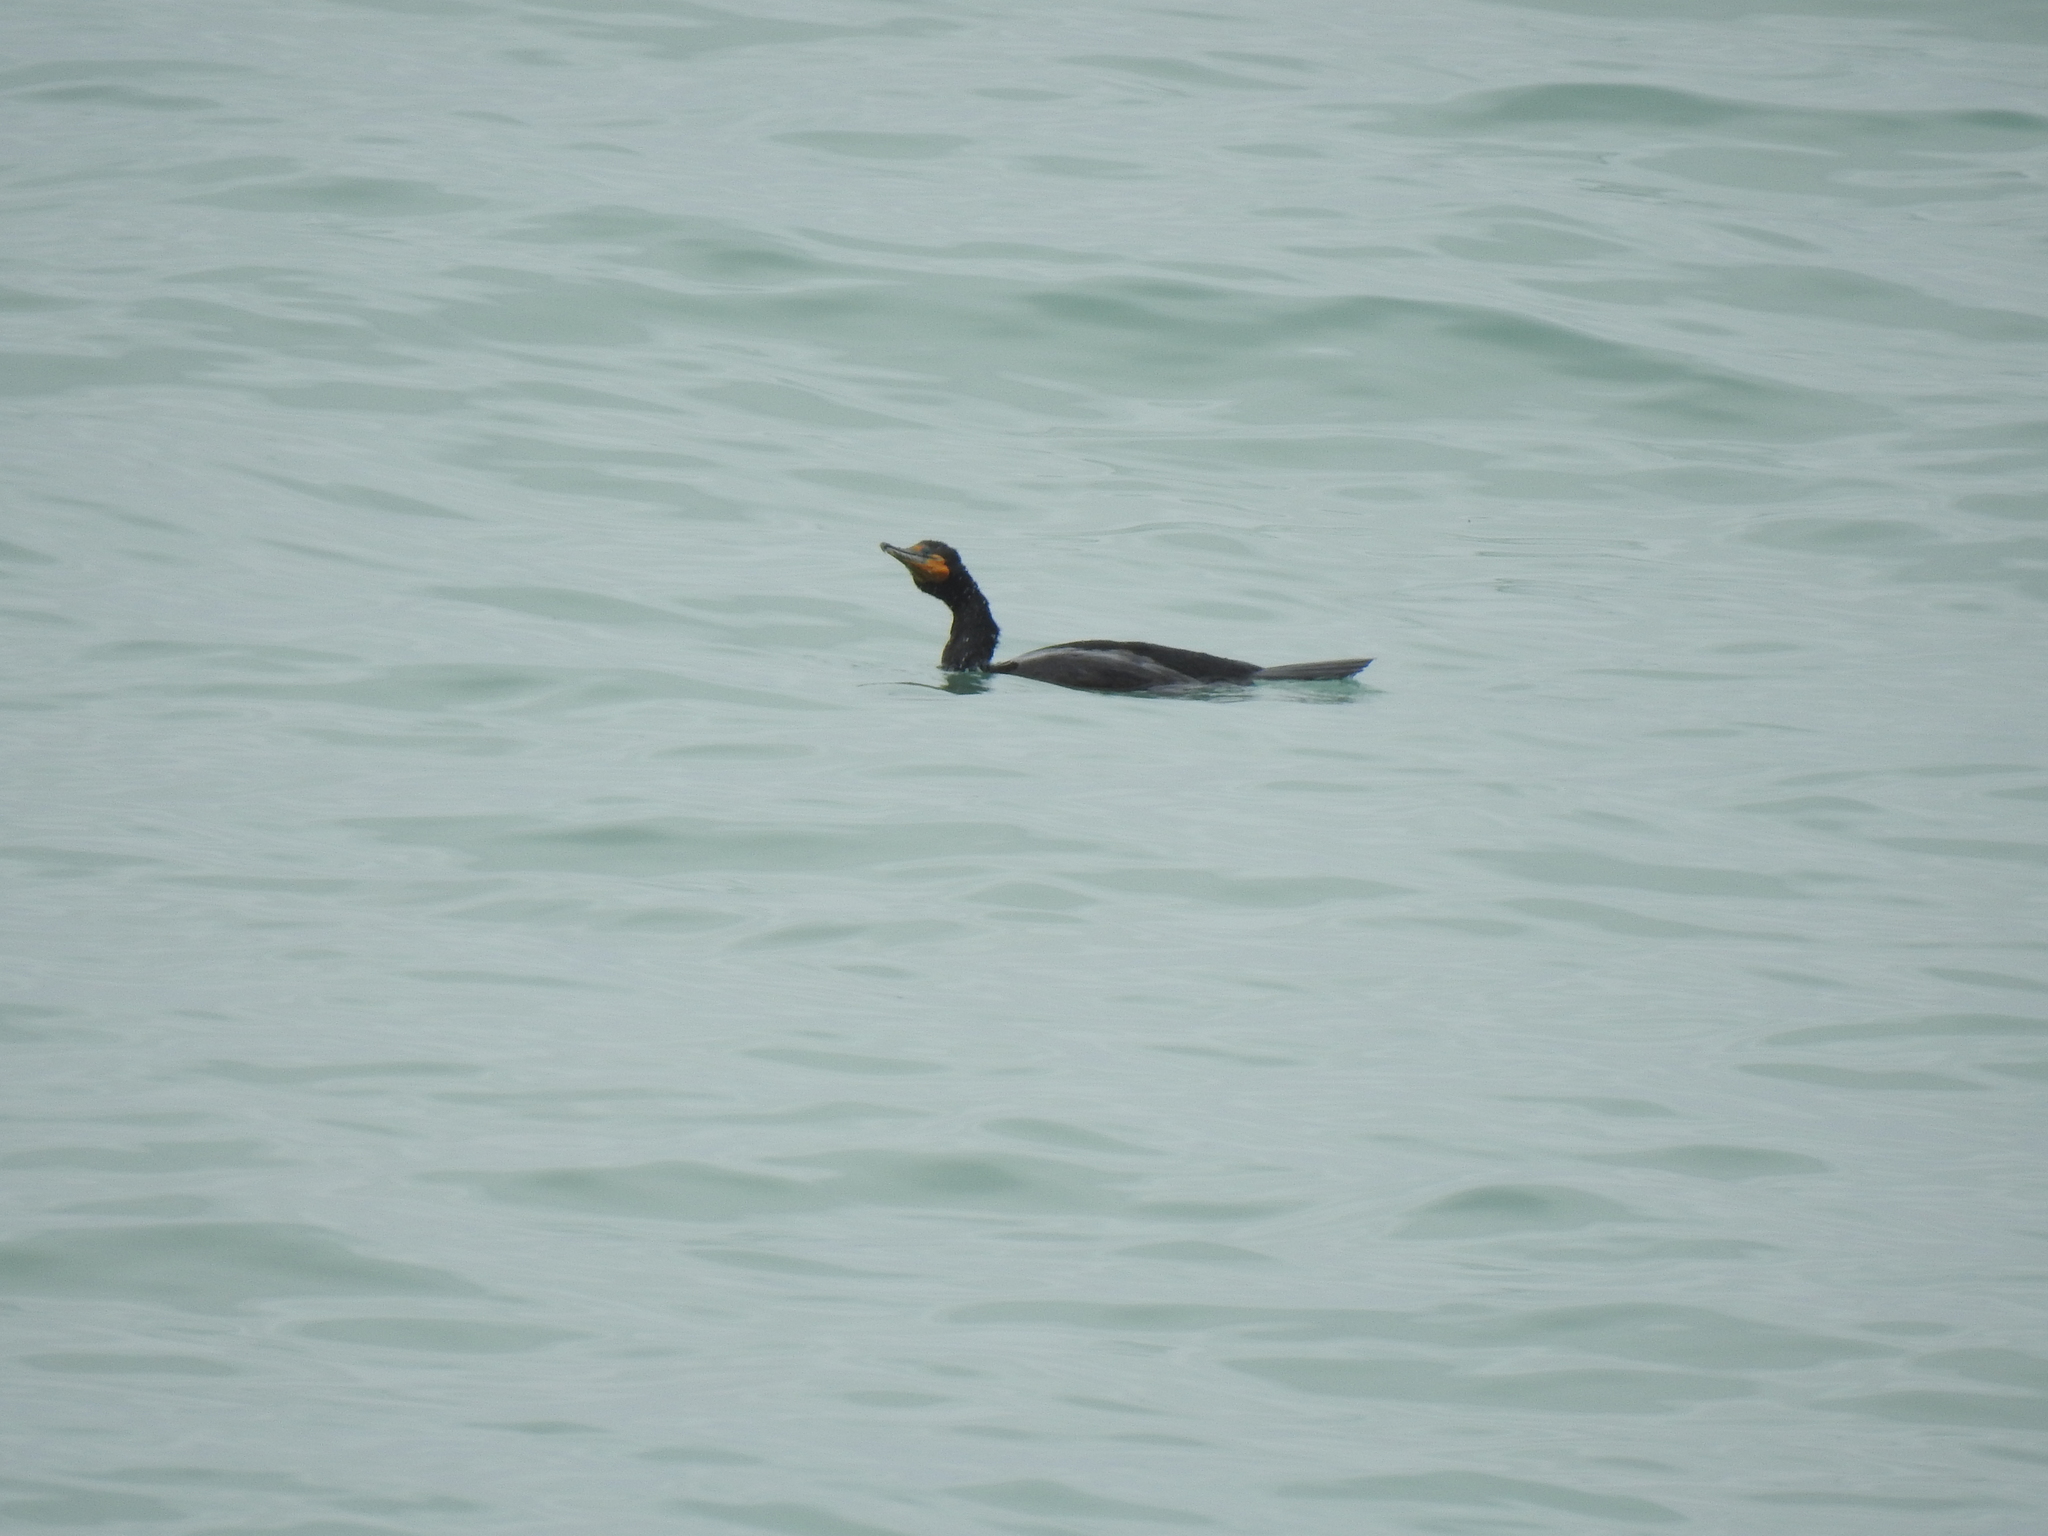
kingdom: Animalia
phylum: Chordata
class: Aves
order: Suliformes
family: Phalacrocoracidae
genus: Phalacrocorax
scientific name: Phalacrocorax auritus
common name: Double-crested cormorant
